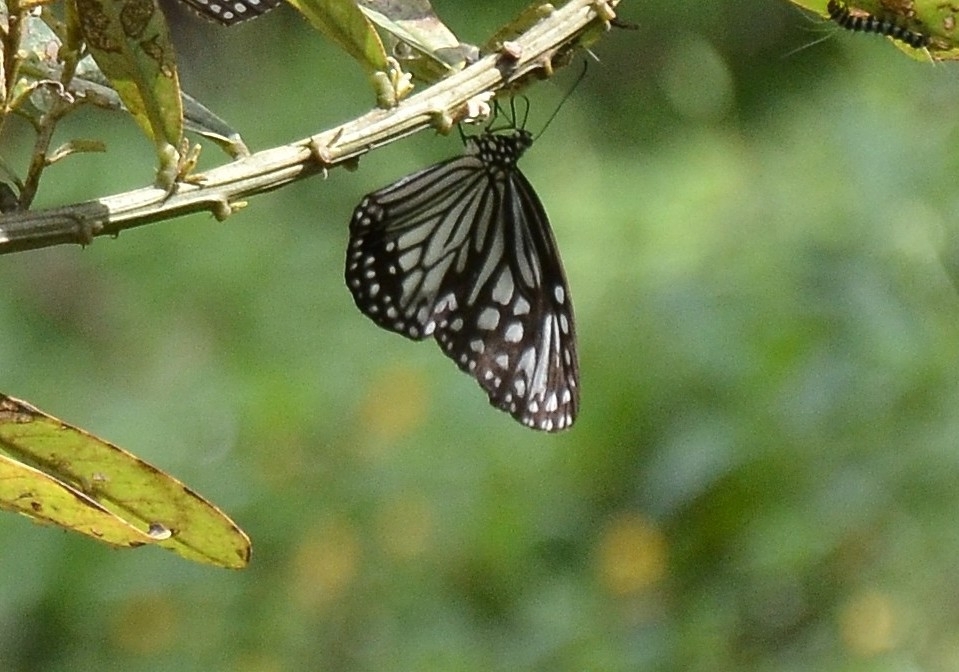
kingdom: Animalia
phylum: Arthropoda
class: Insecta
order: Lepidoptera
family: Nymphalidae
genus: Parantica
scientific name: Parantica aglea
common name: Glassy tiger
